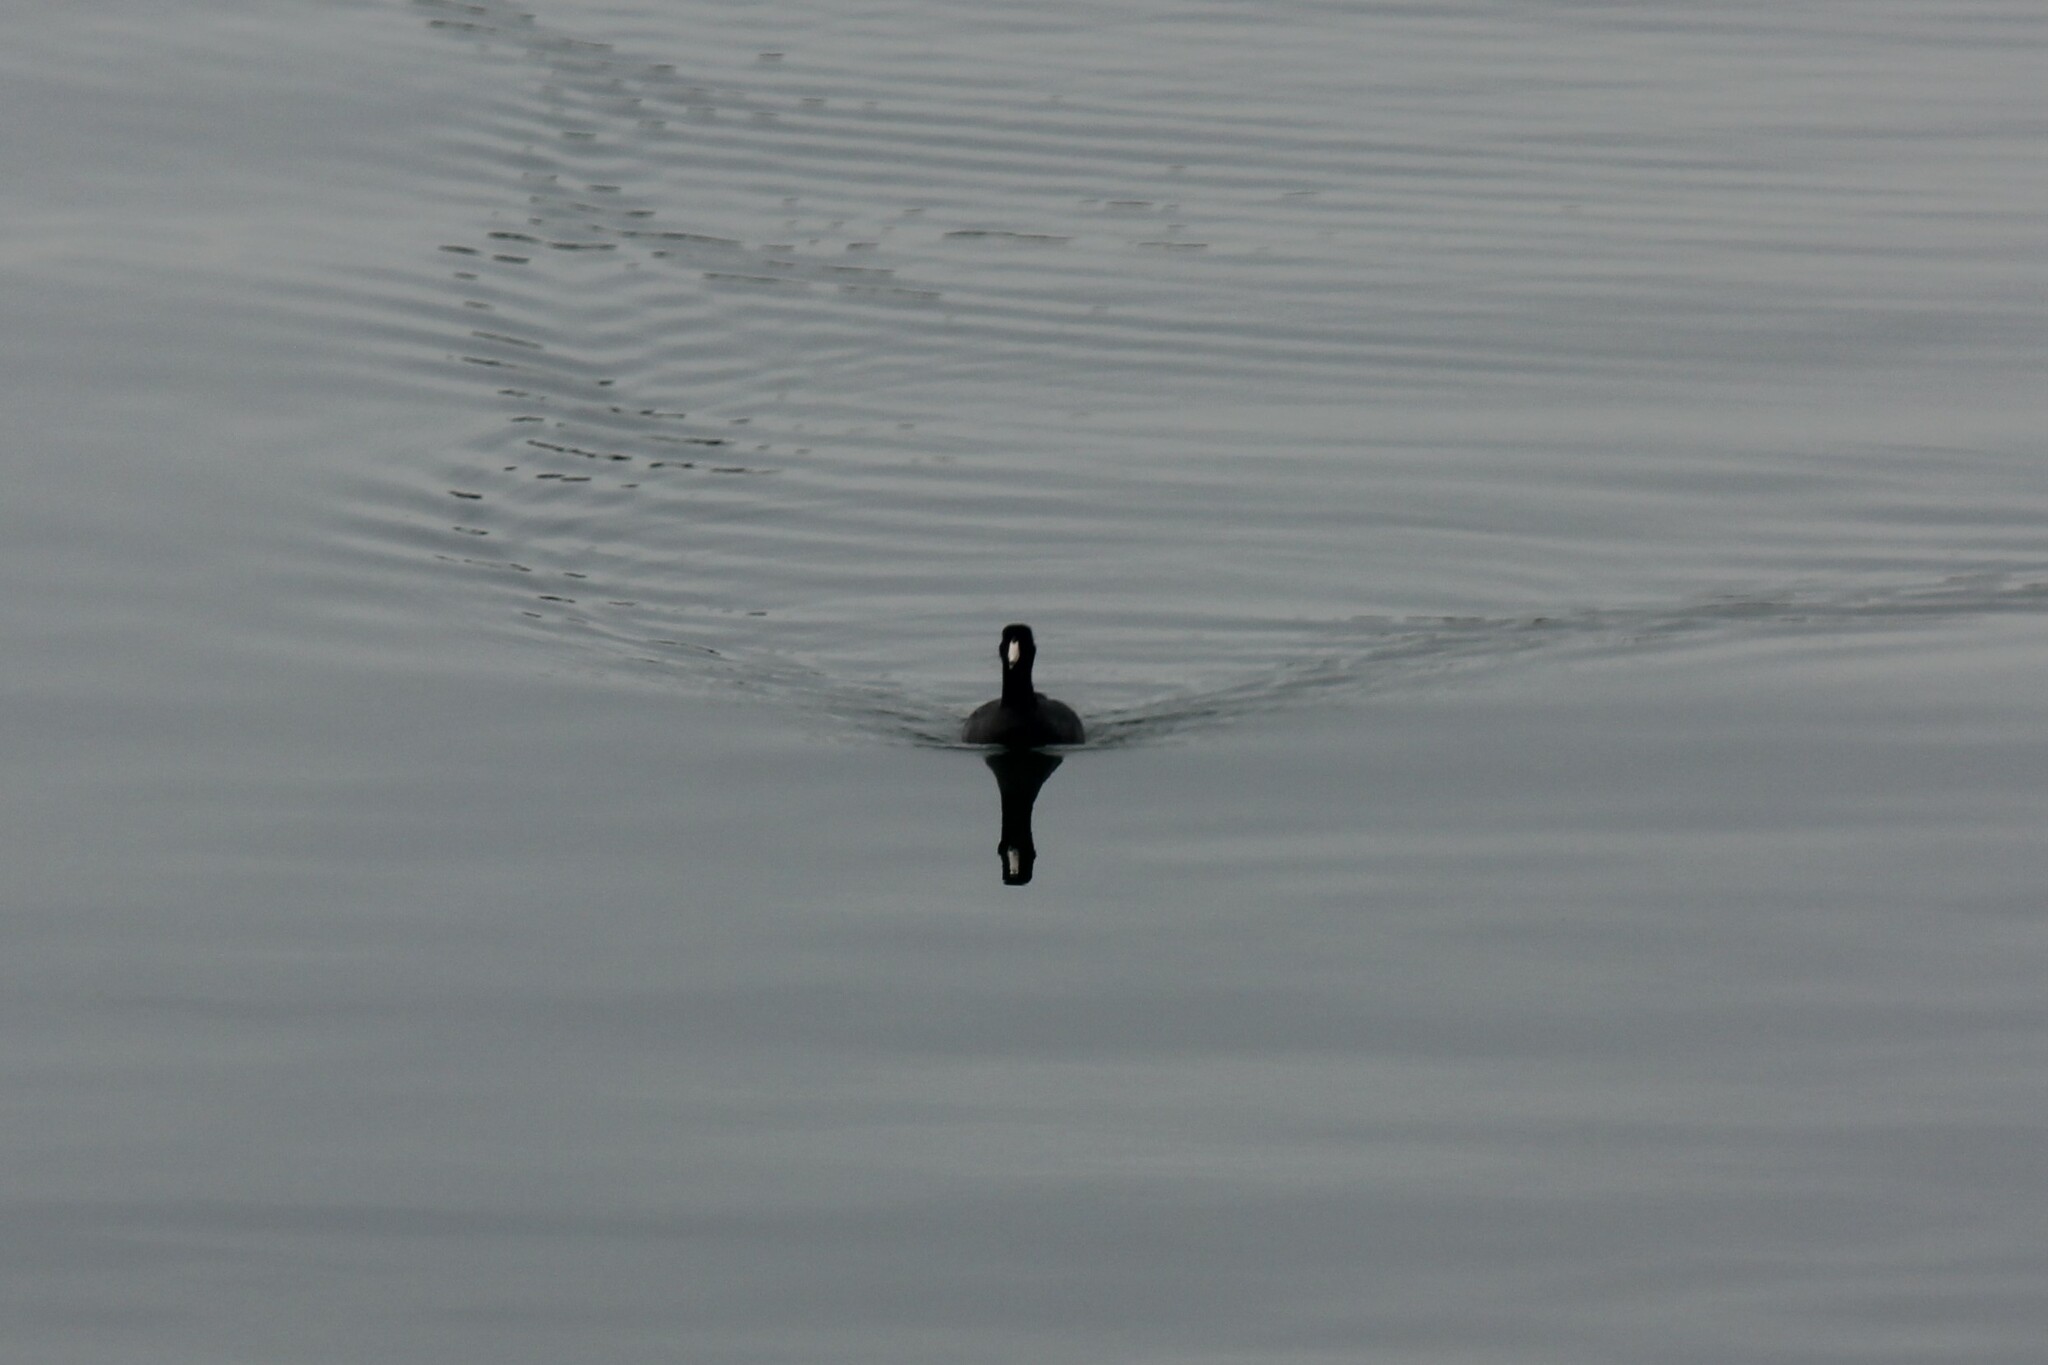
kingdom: Animalia
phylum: Chordata
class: Aves
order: Gruiformes
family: Rallidae
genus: Fulica
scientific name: Fulica americana
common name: American coot
